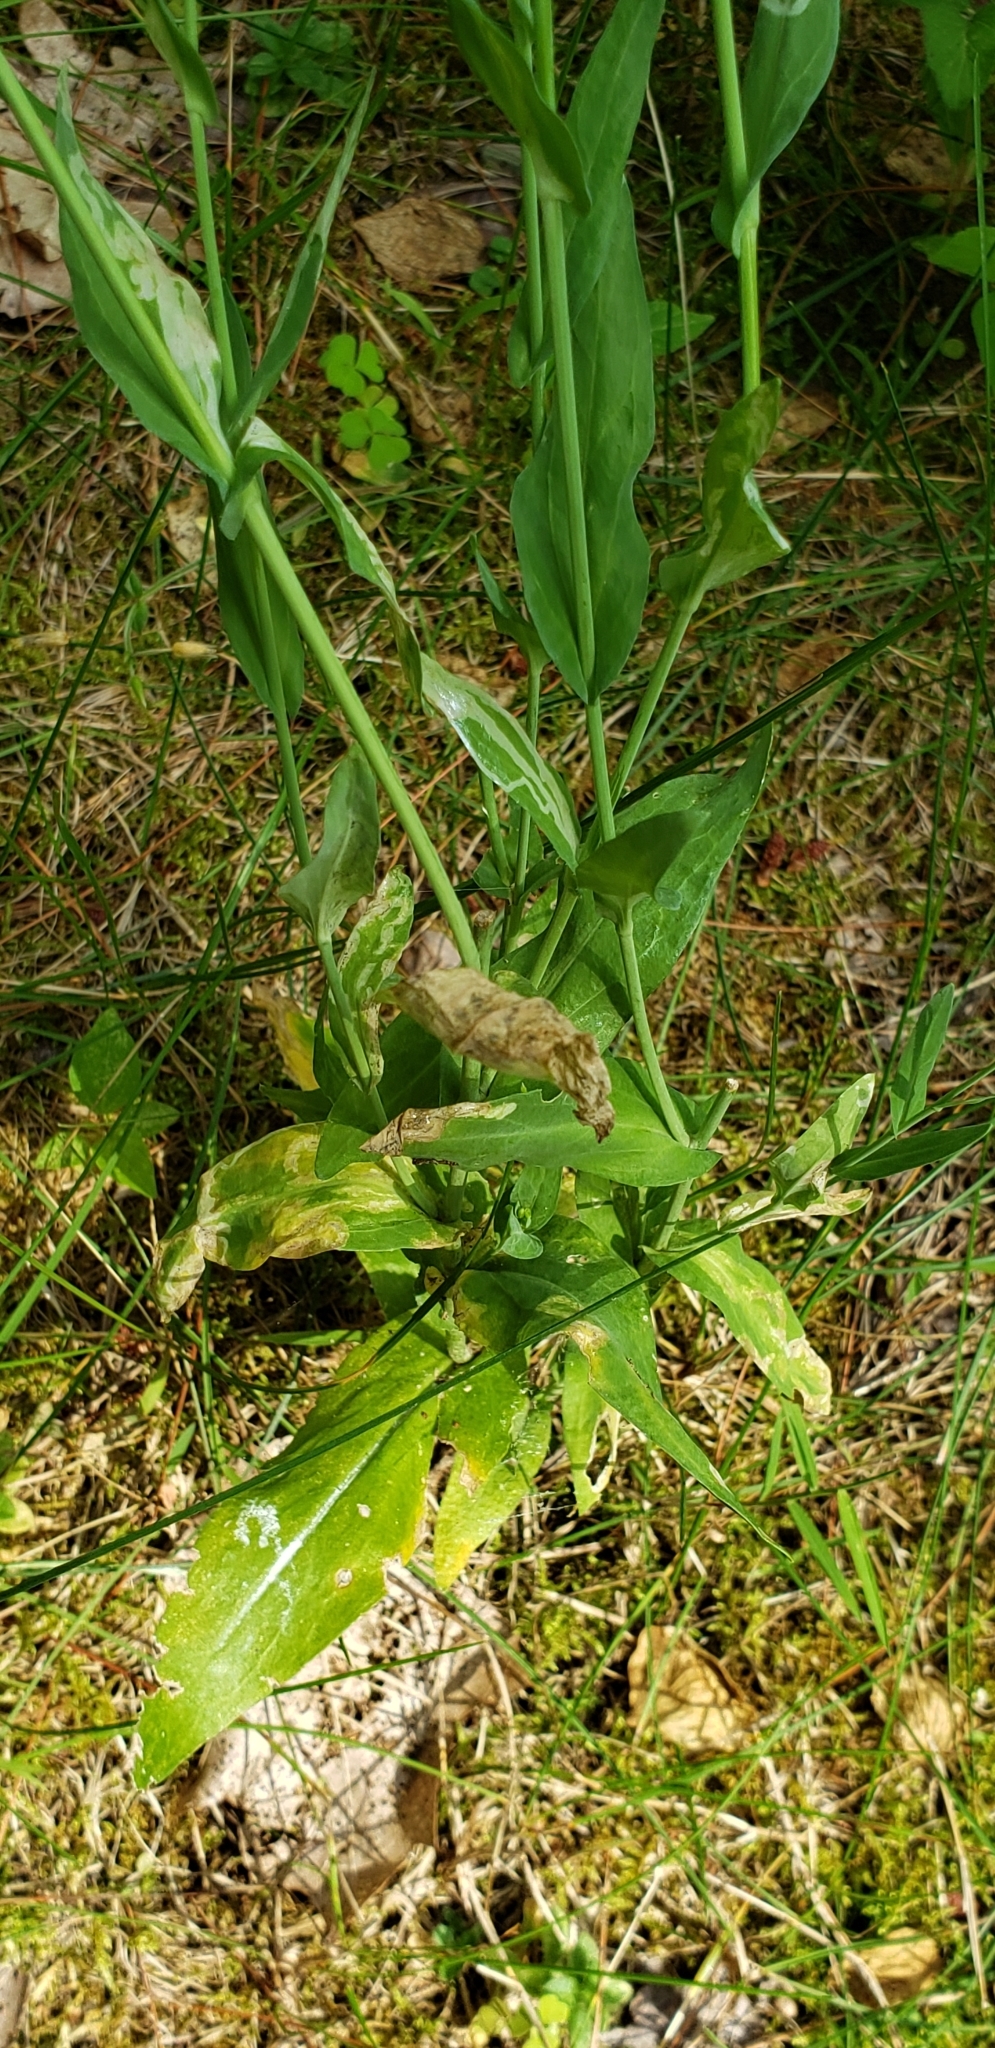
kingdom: Plantae
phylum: Tracheophyta
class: Magnoliopsida
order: Brassicales
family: Brassicaceae
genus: Turritis
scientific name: Turritis glabra
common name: Tower rockcress
